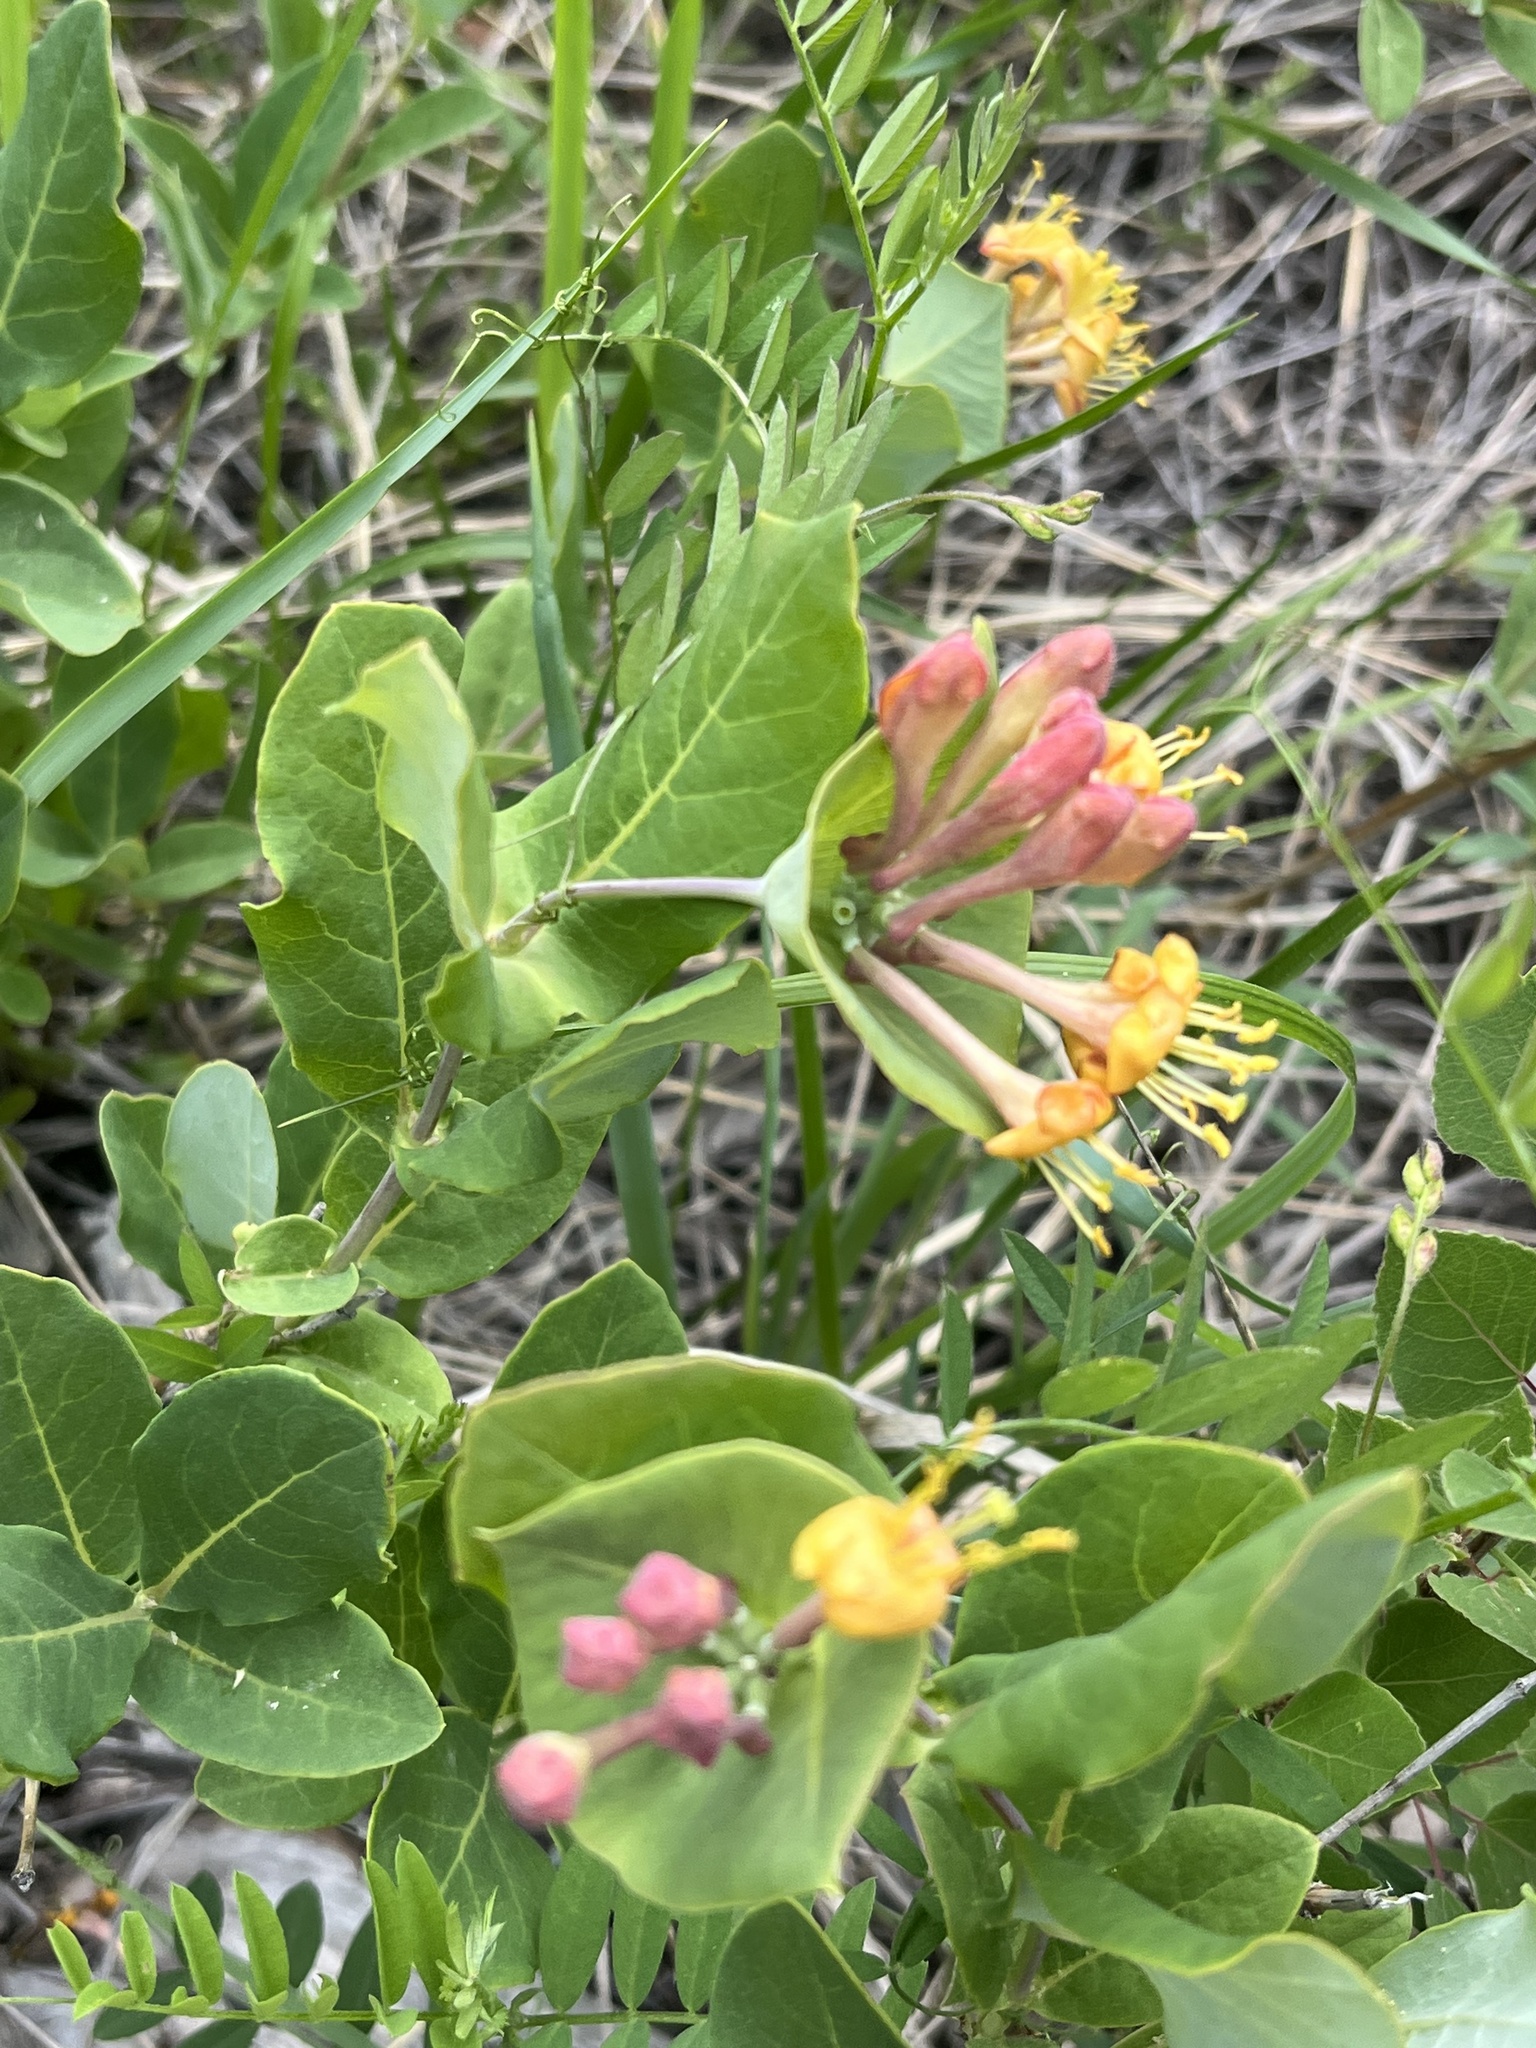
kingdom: Plantae
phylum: Tracheophyta
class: Magnoliopsida
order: Dipsacales
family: Caprifoliaceae
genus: Lonicera
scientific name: Lonicera dioica
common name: Limber honeysuckle
